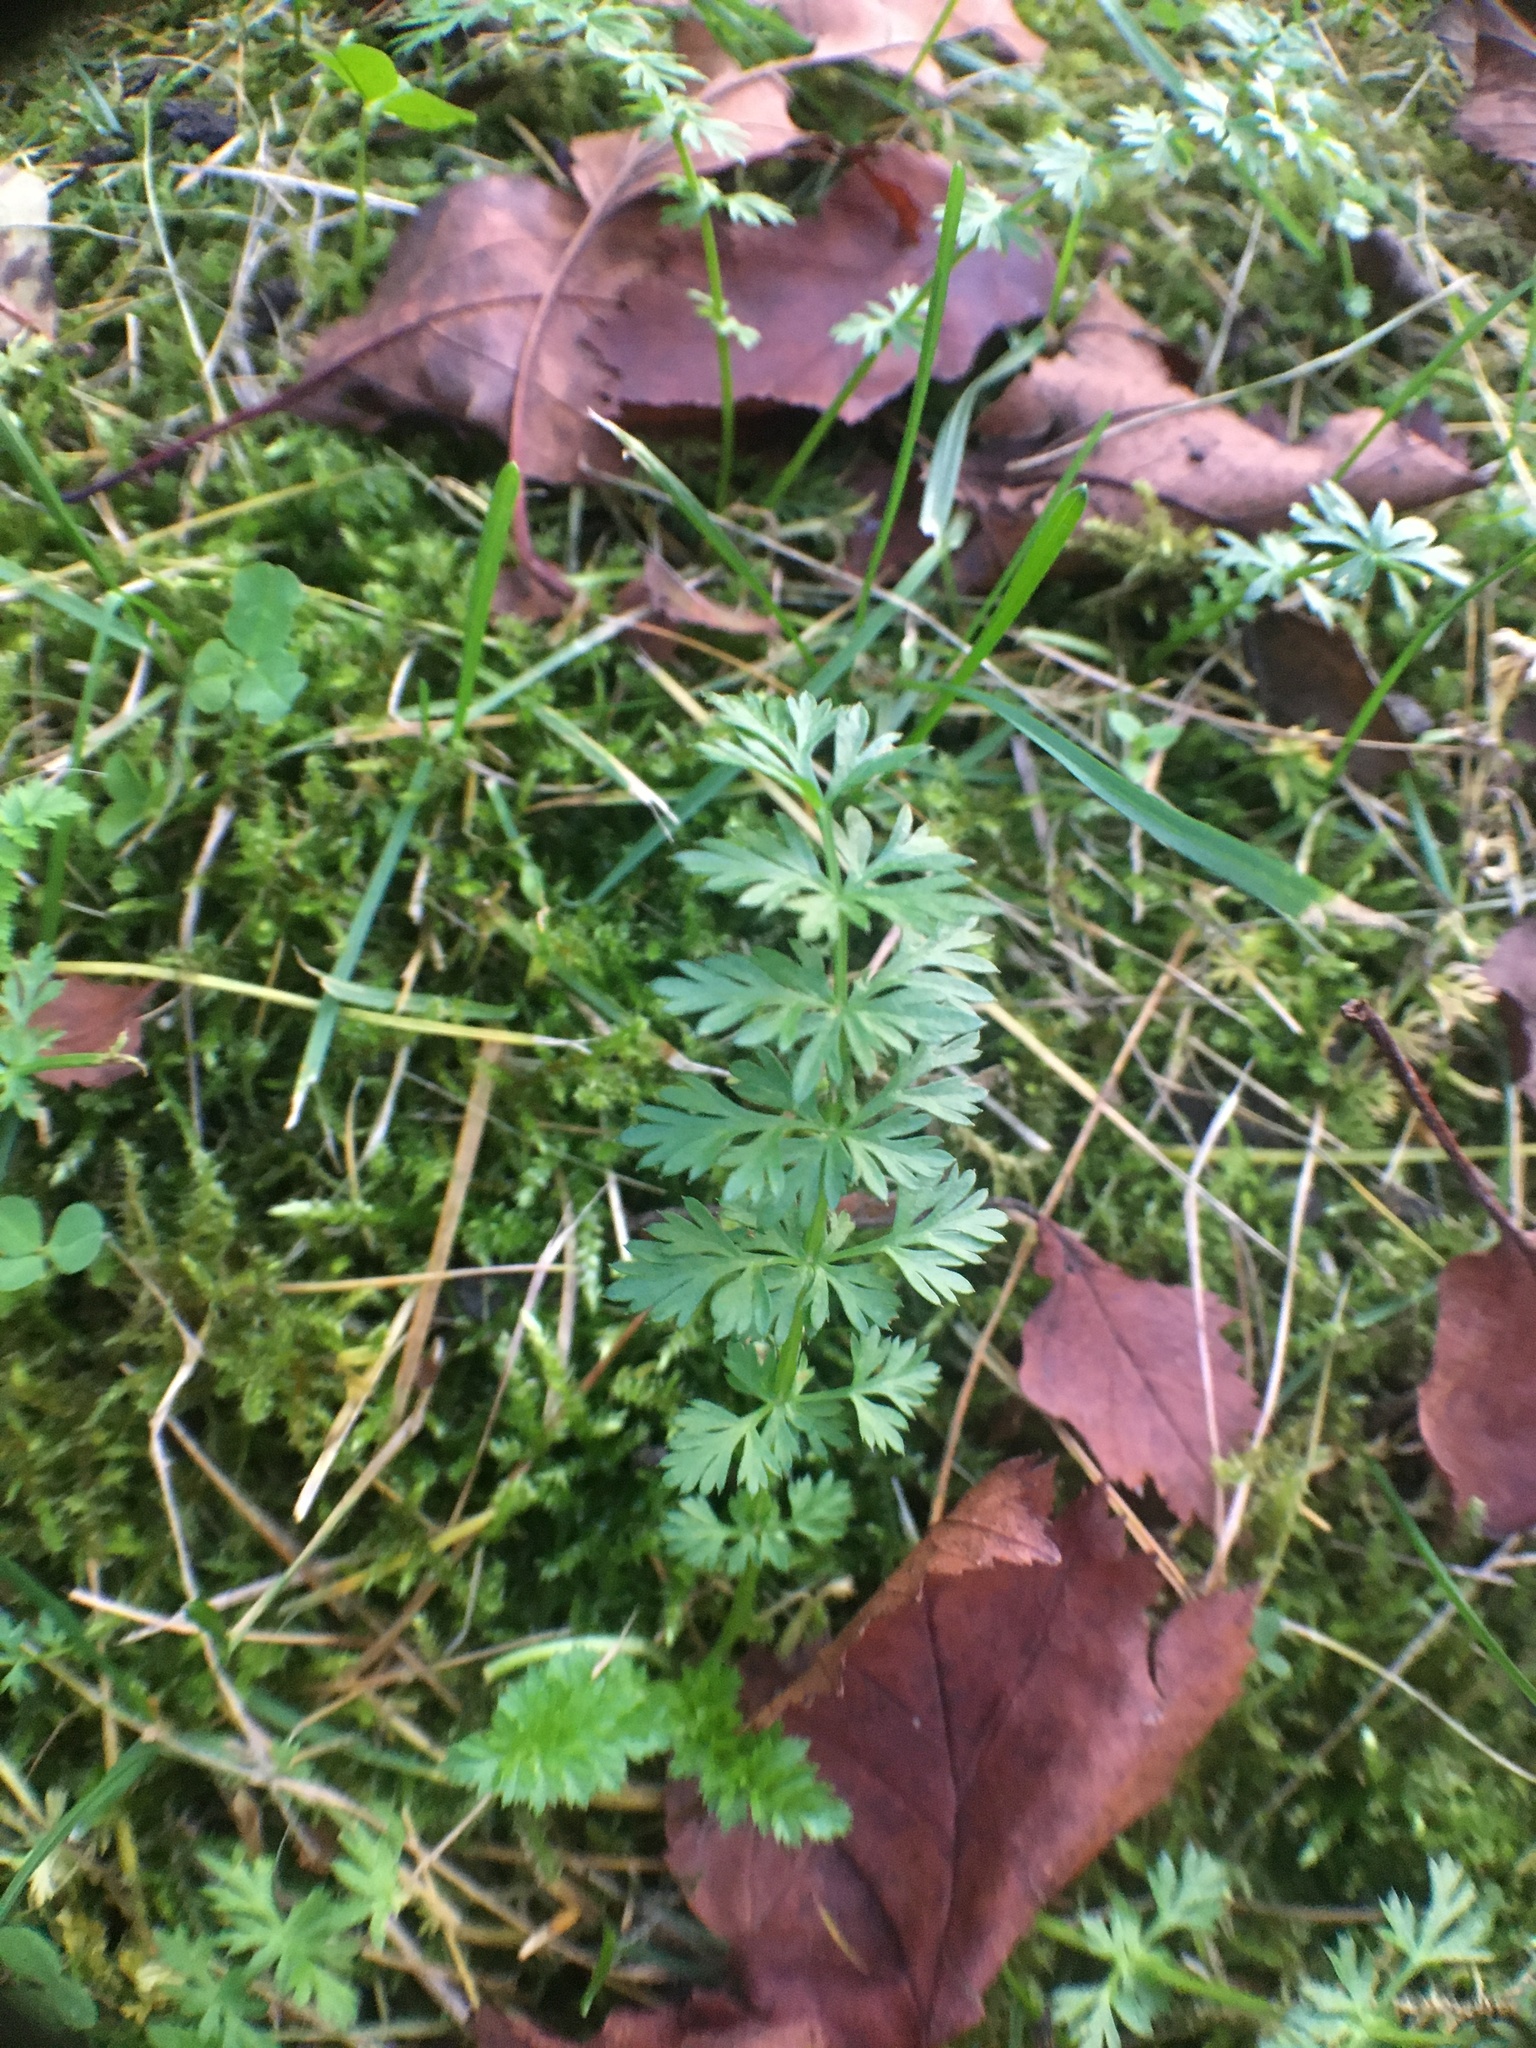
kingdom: Plantae
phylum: Tracheophyta
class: Magnoliopsida
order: Apiales
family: Apiaceae
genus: Carum
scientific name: Carum carvi
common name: Caraway
